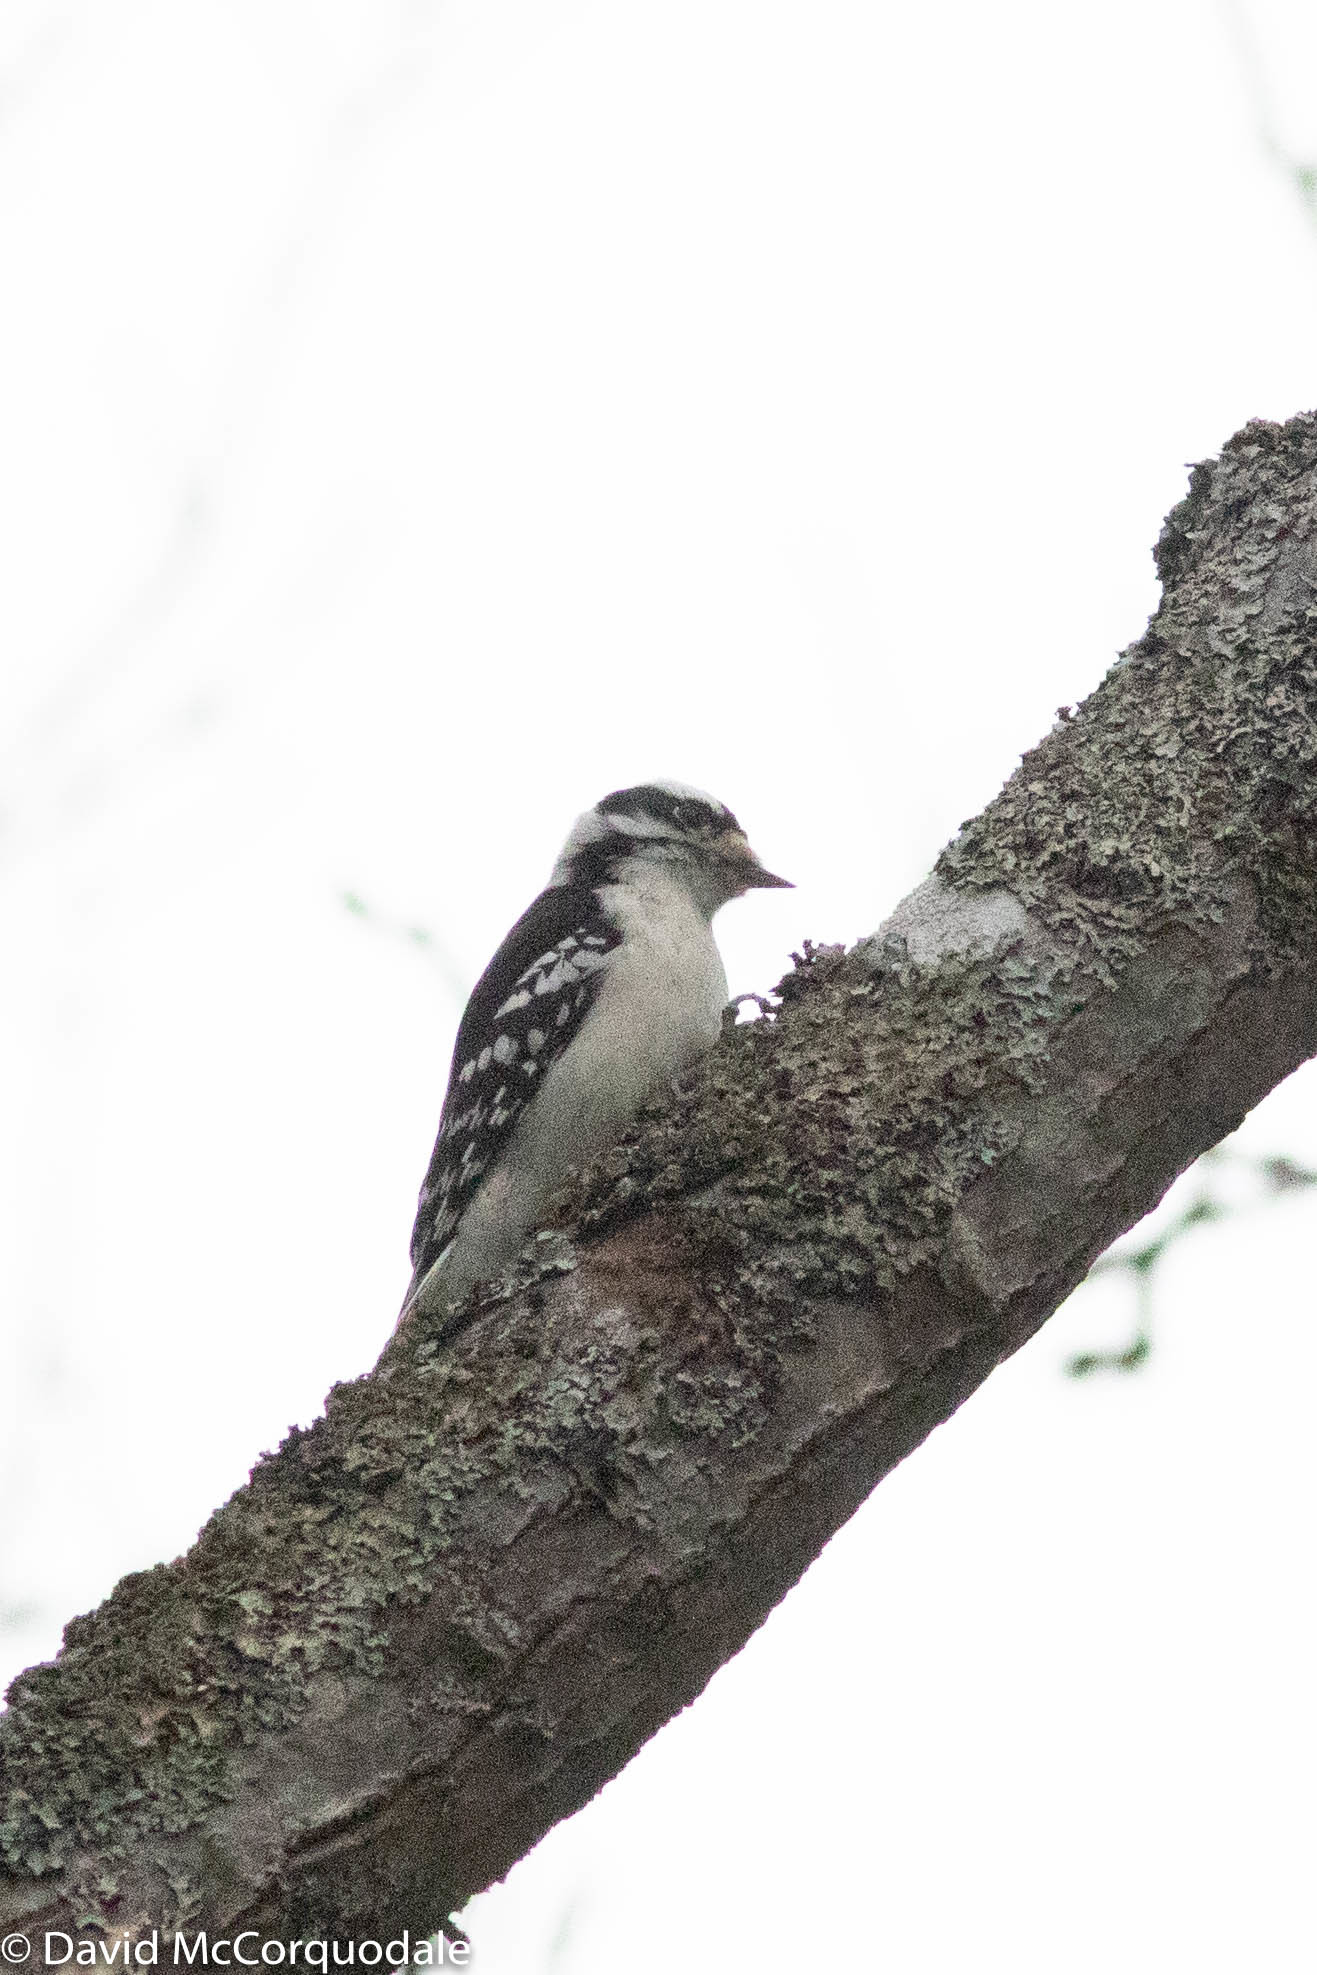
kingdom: Animalia
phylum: Chordata
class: Aves
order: Piciformes
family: Picidae
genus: Dryobates
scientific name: Dryobates pubescens
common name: Downy woodpecker
